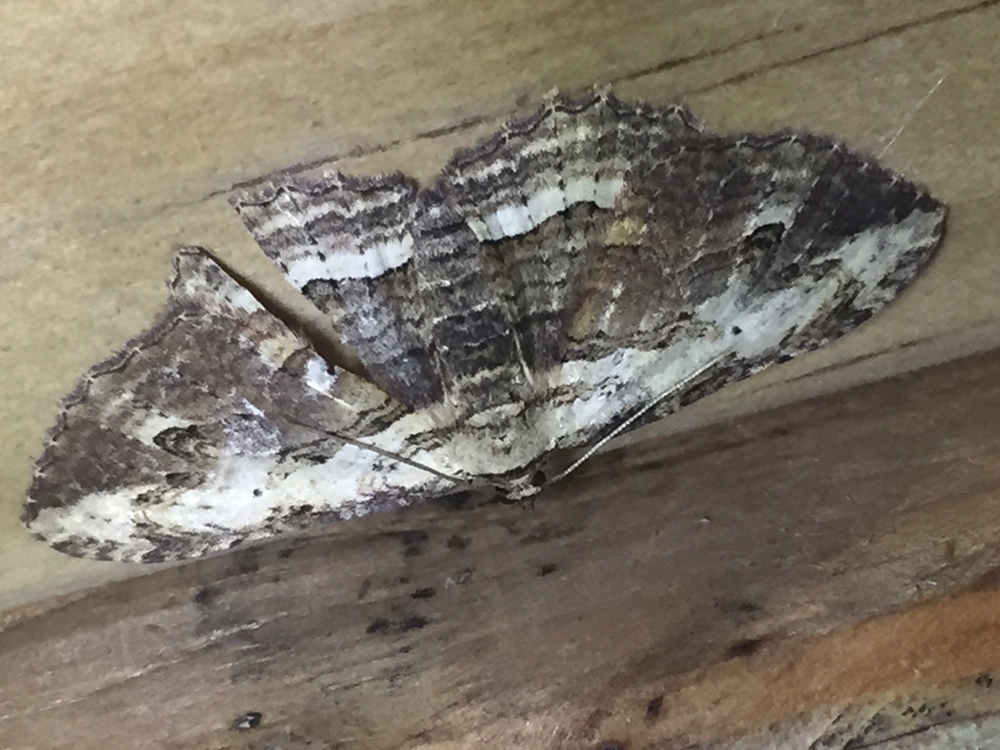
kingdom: Animalia
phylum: Arthropoda
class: Insecta
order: Lepidoptera
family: Geometridae
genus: Austrocidaria
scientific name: Austrocidaria bipartita
